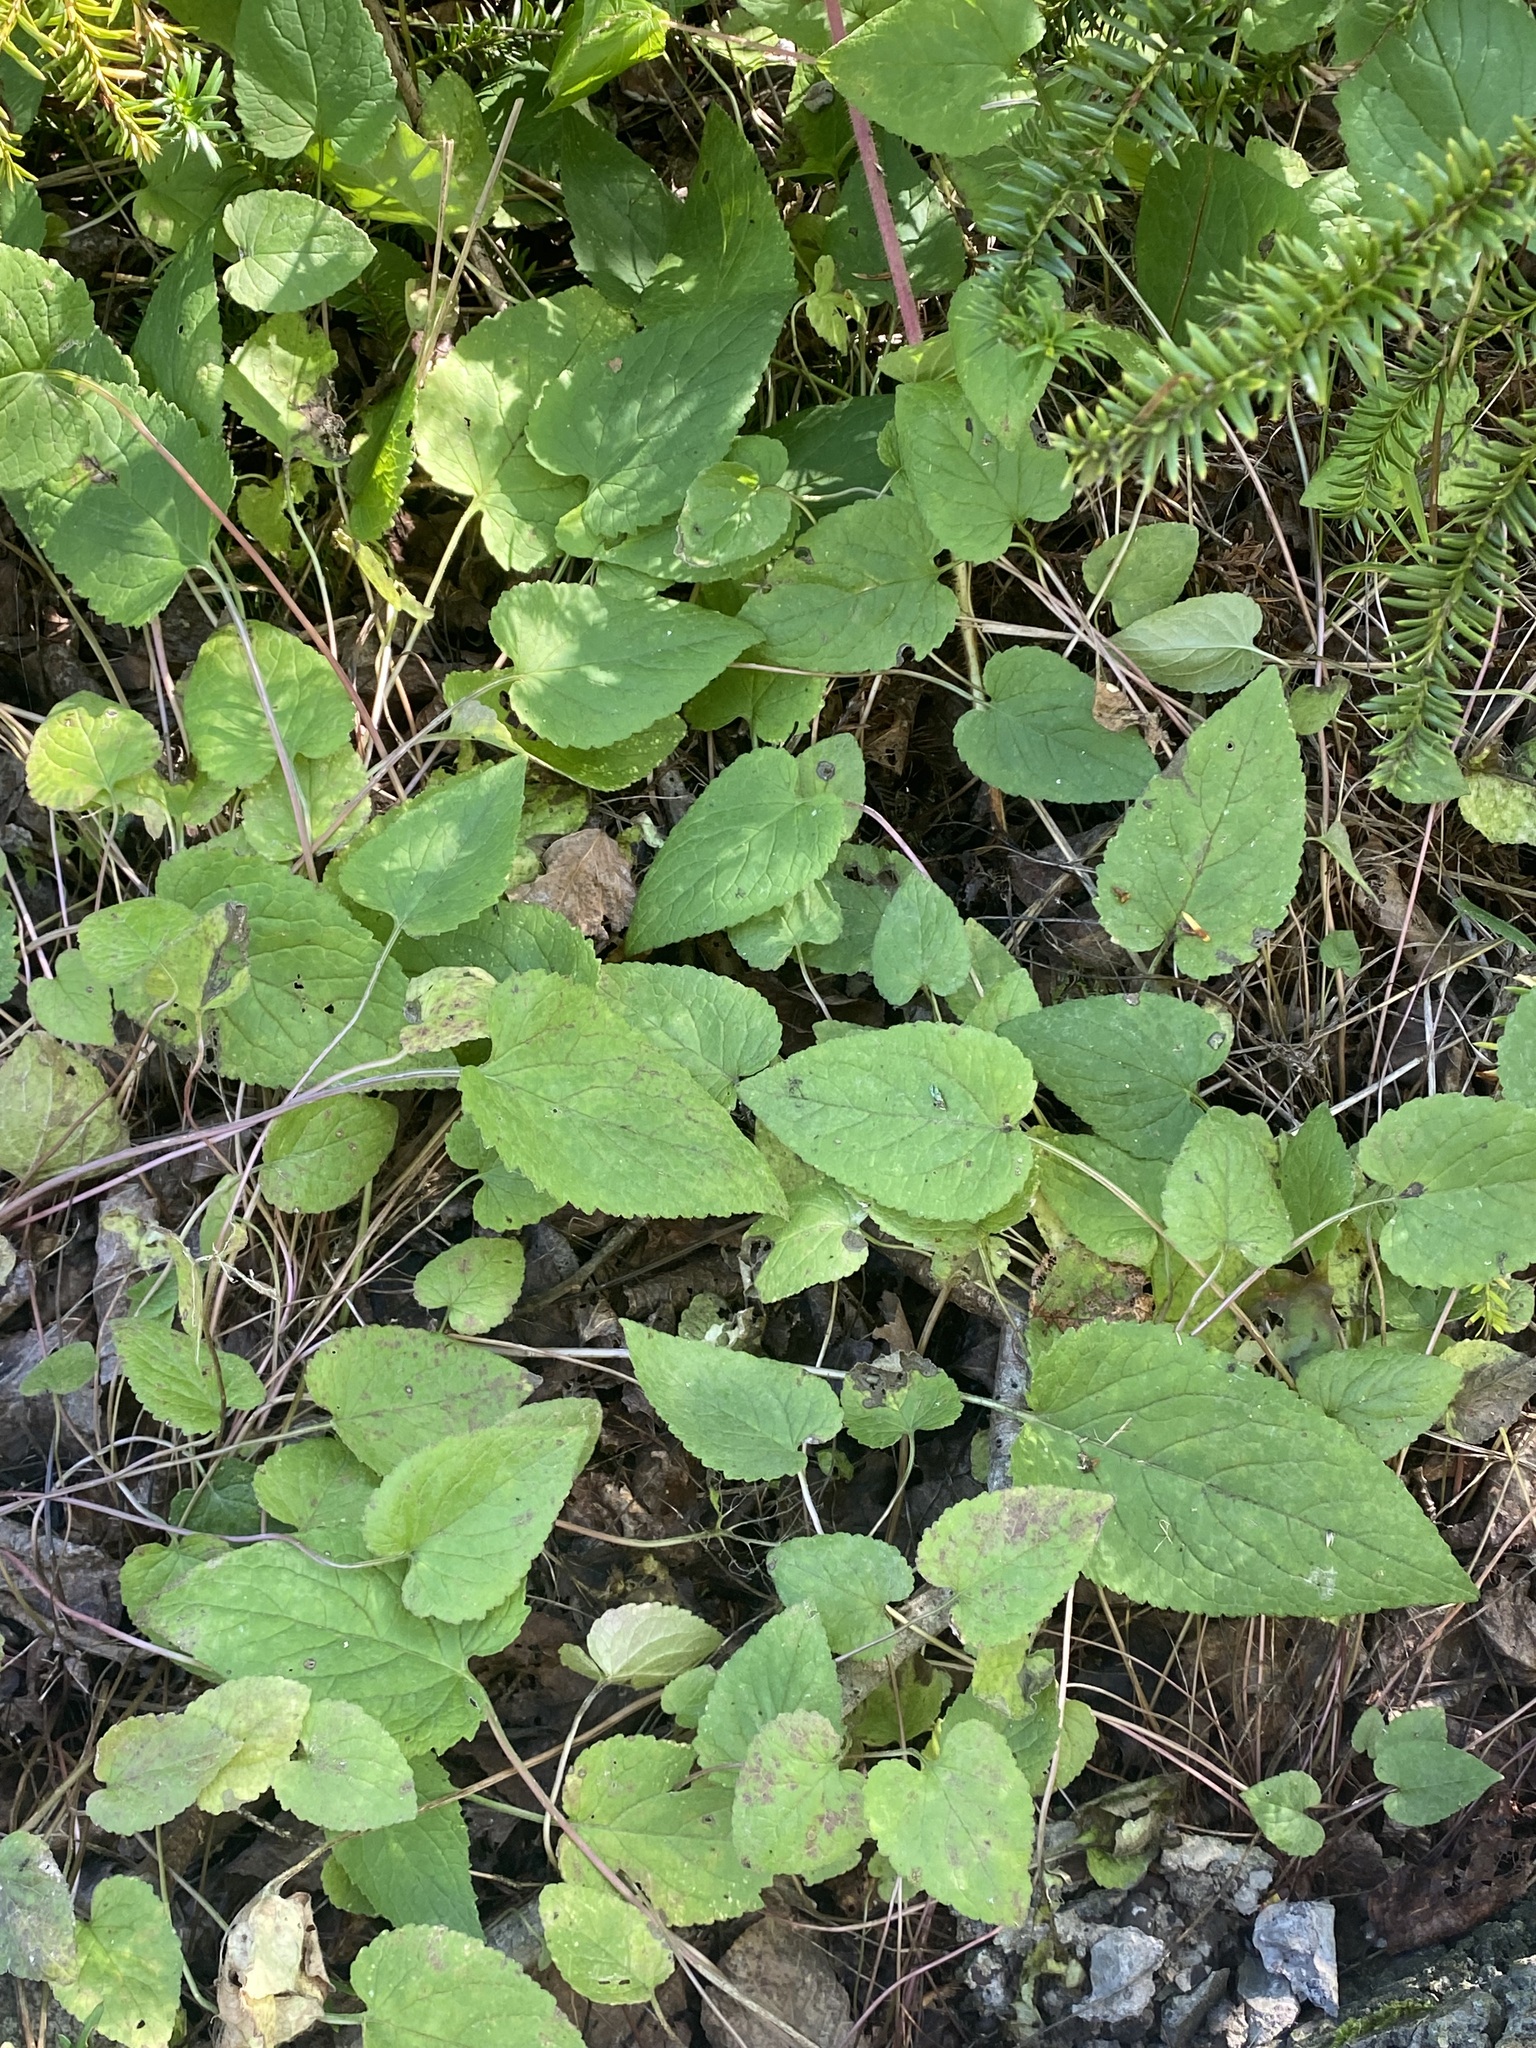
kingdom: Plantae
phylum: Tracheophyta
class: Magnoliopsida
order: Asterales
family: Campanulaceae
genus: Campanula
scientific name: Campanula rapunculoides
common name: Creeping bellflower
